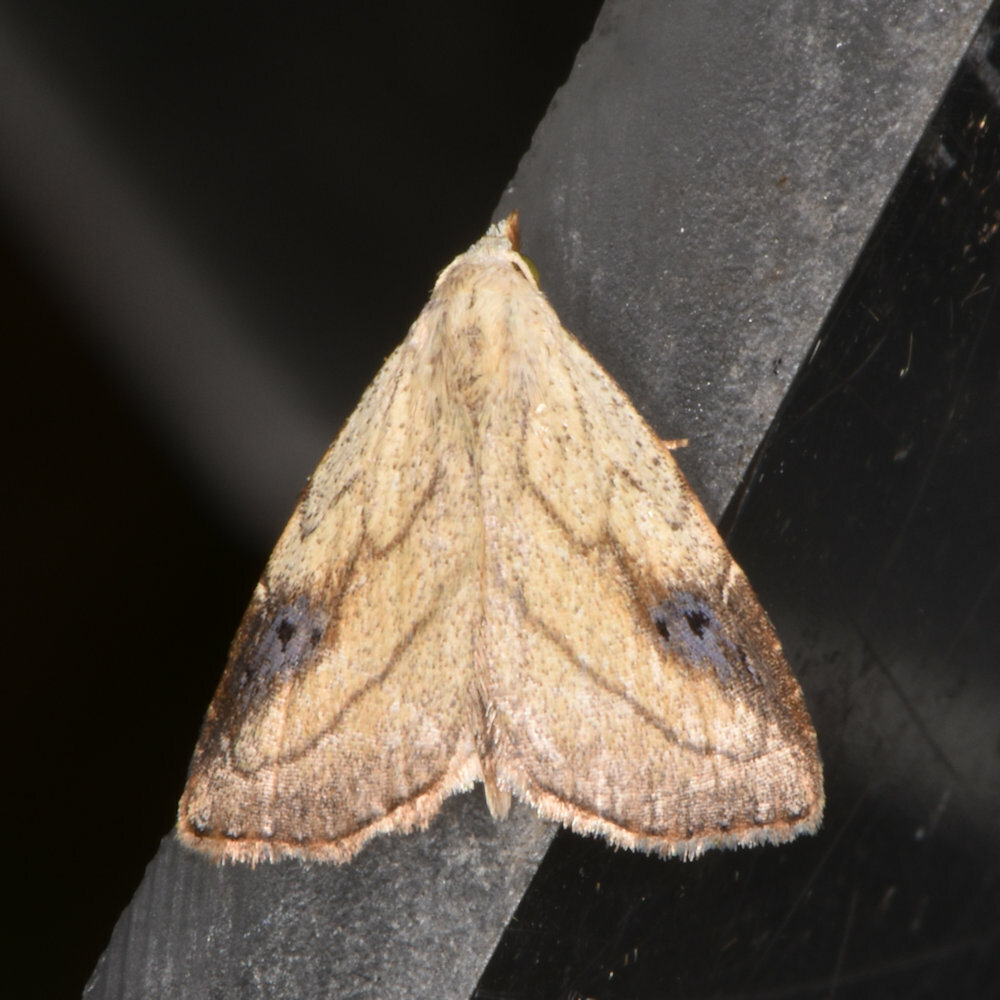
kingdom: Animalia
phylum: Arthropoda
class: Insecta
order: Lepidoptera
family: Erebidae
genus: Rivula
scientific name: Rivula propinqualis
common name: Spotted grass moth
